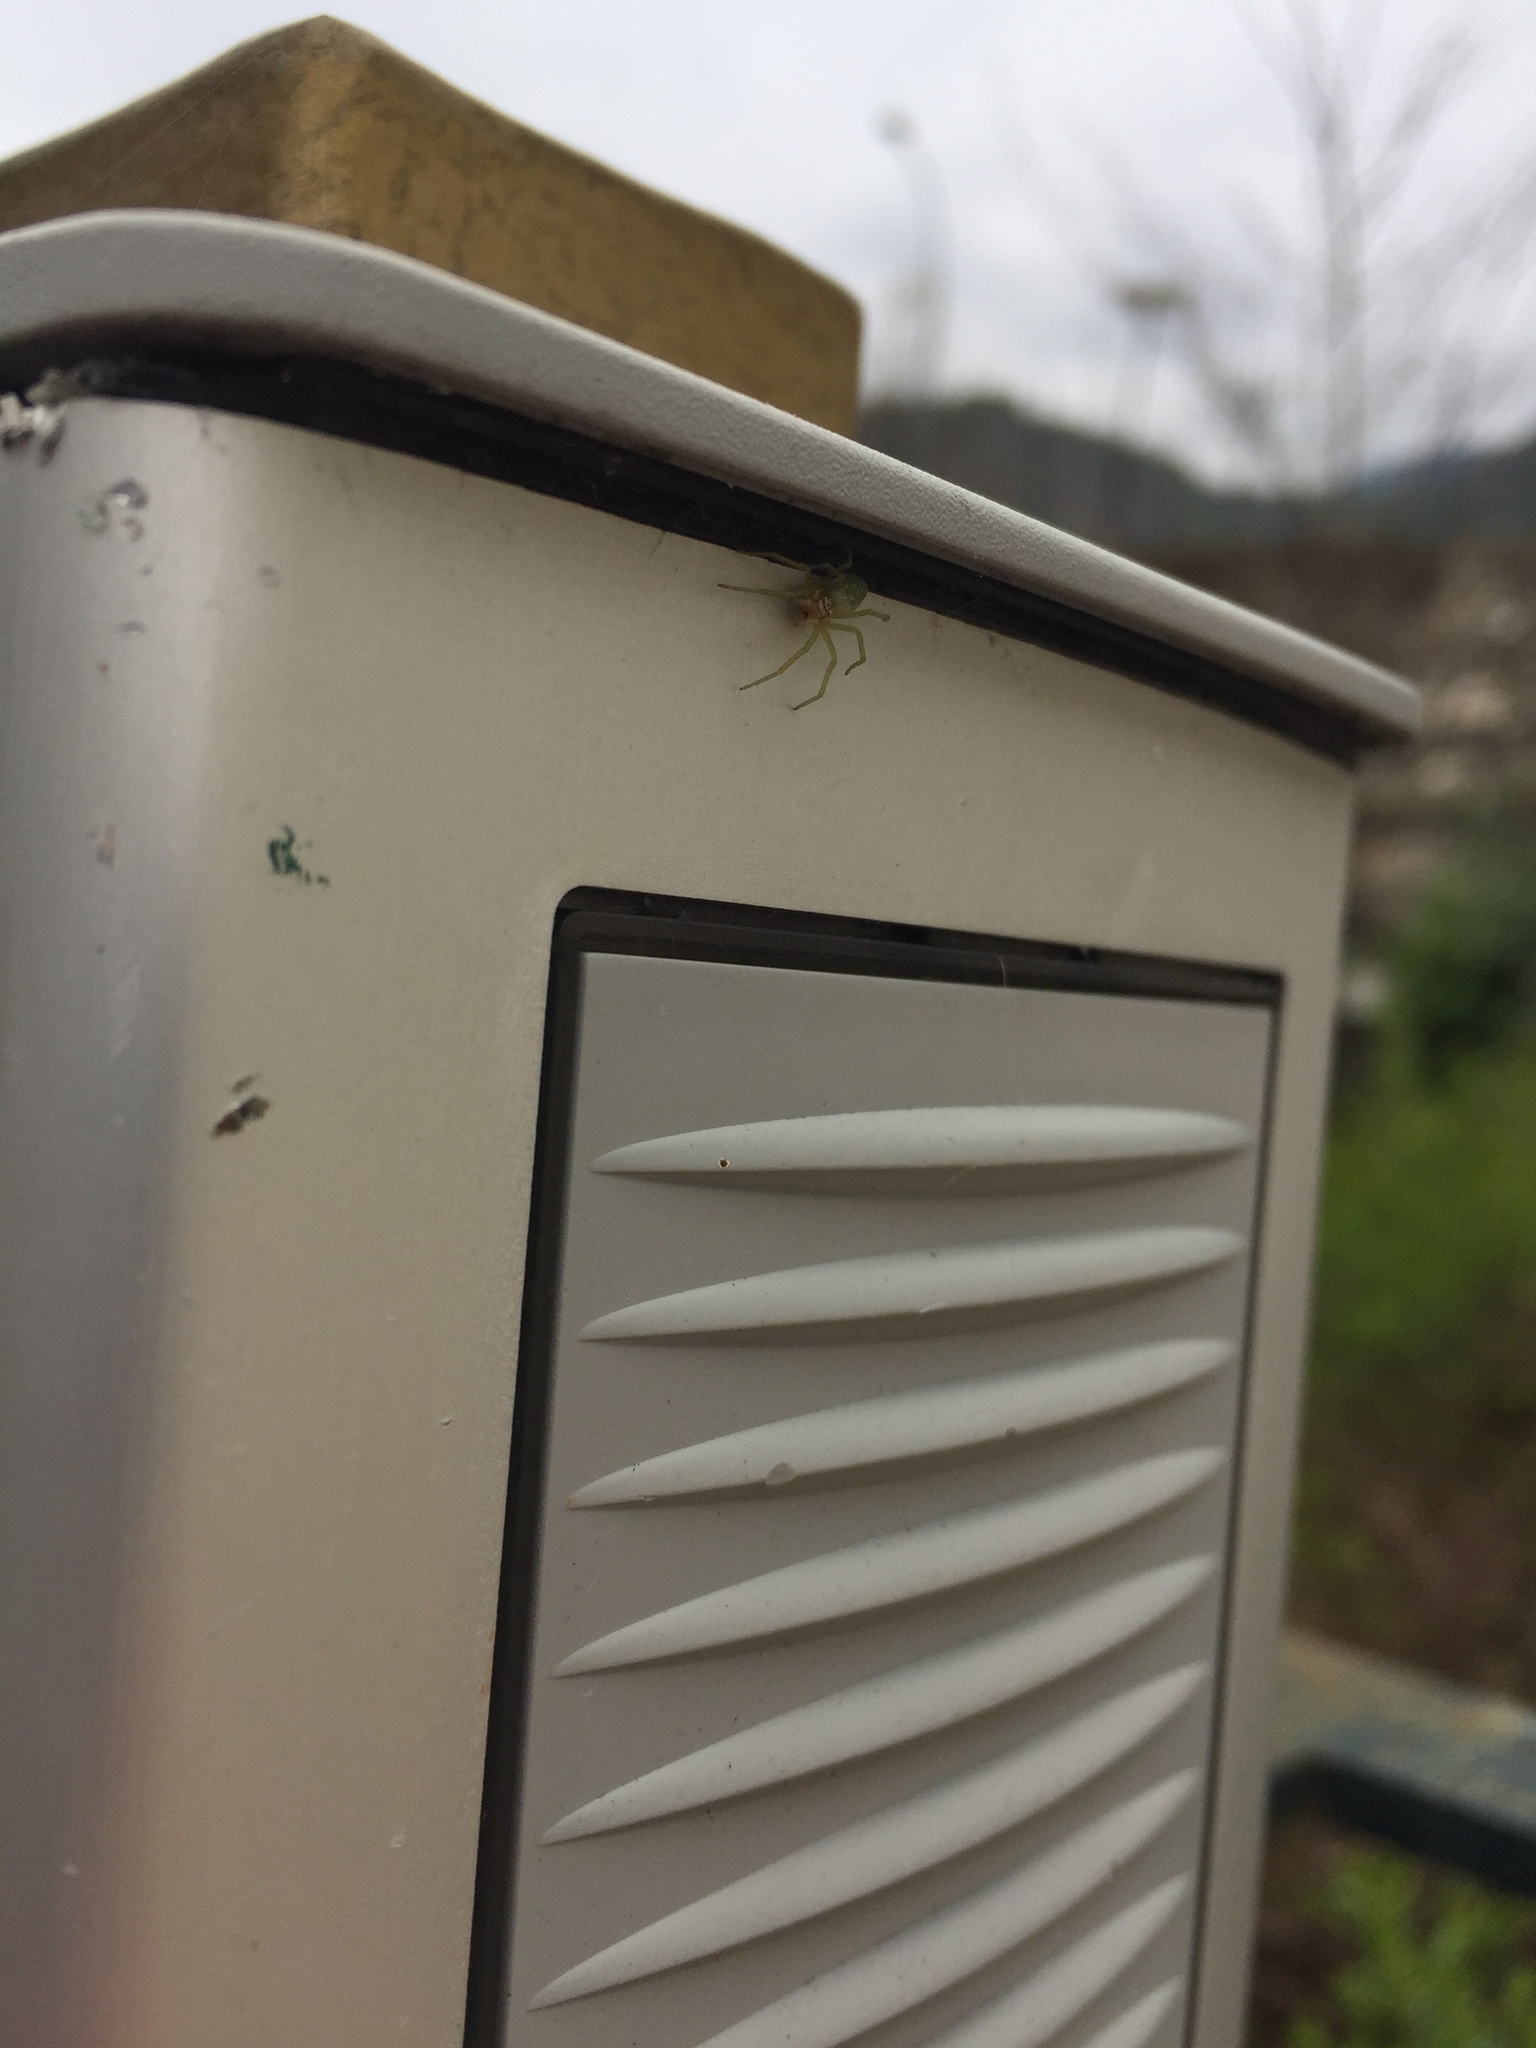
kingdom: Animalia
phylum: Arthropoda
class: Arachnida
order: Araneae
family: Dictynidae
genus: Nigma
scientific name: Nigma walckenaeri
